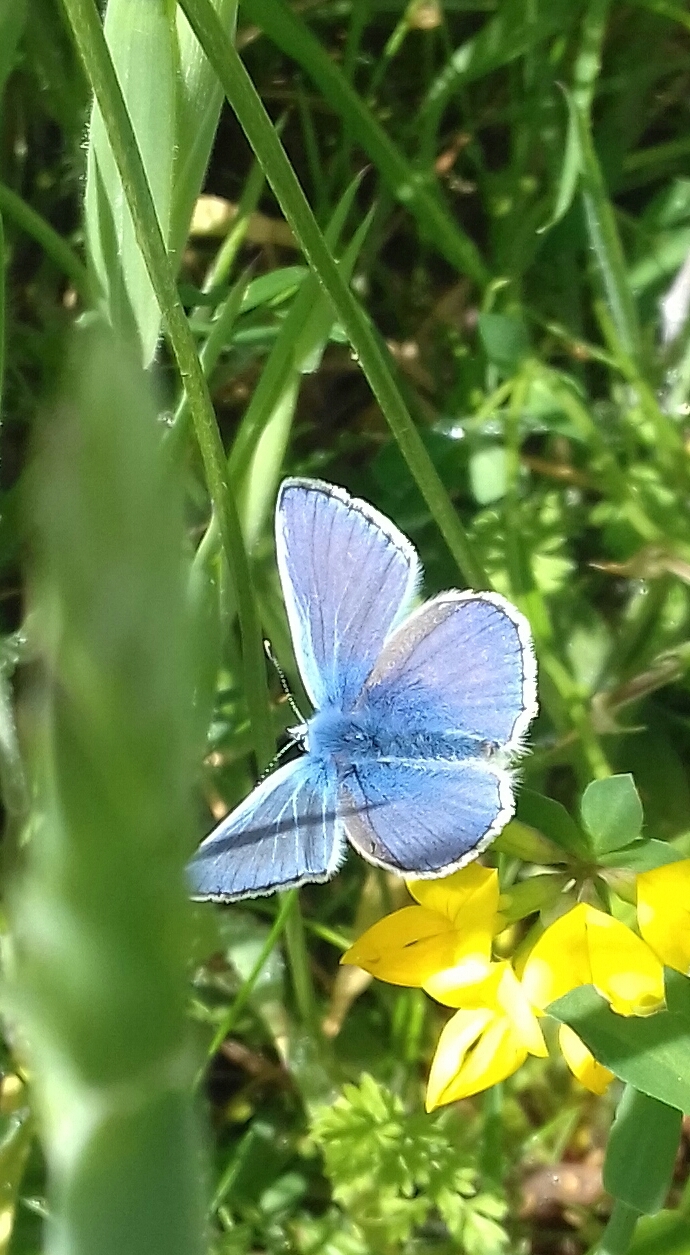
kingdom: Animalia
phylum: Arthropoda
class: Insecta
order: Lepidoptera
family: Lycaenidae
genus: Polyommatus
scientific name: Polyommatus icarus
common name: Common blue
